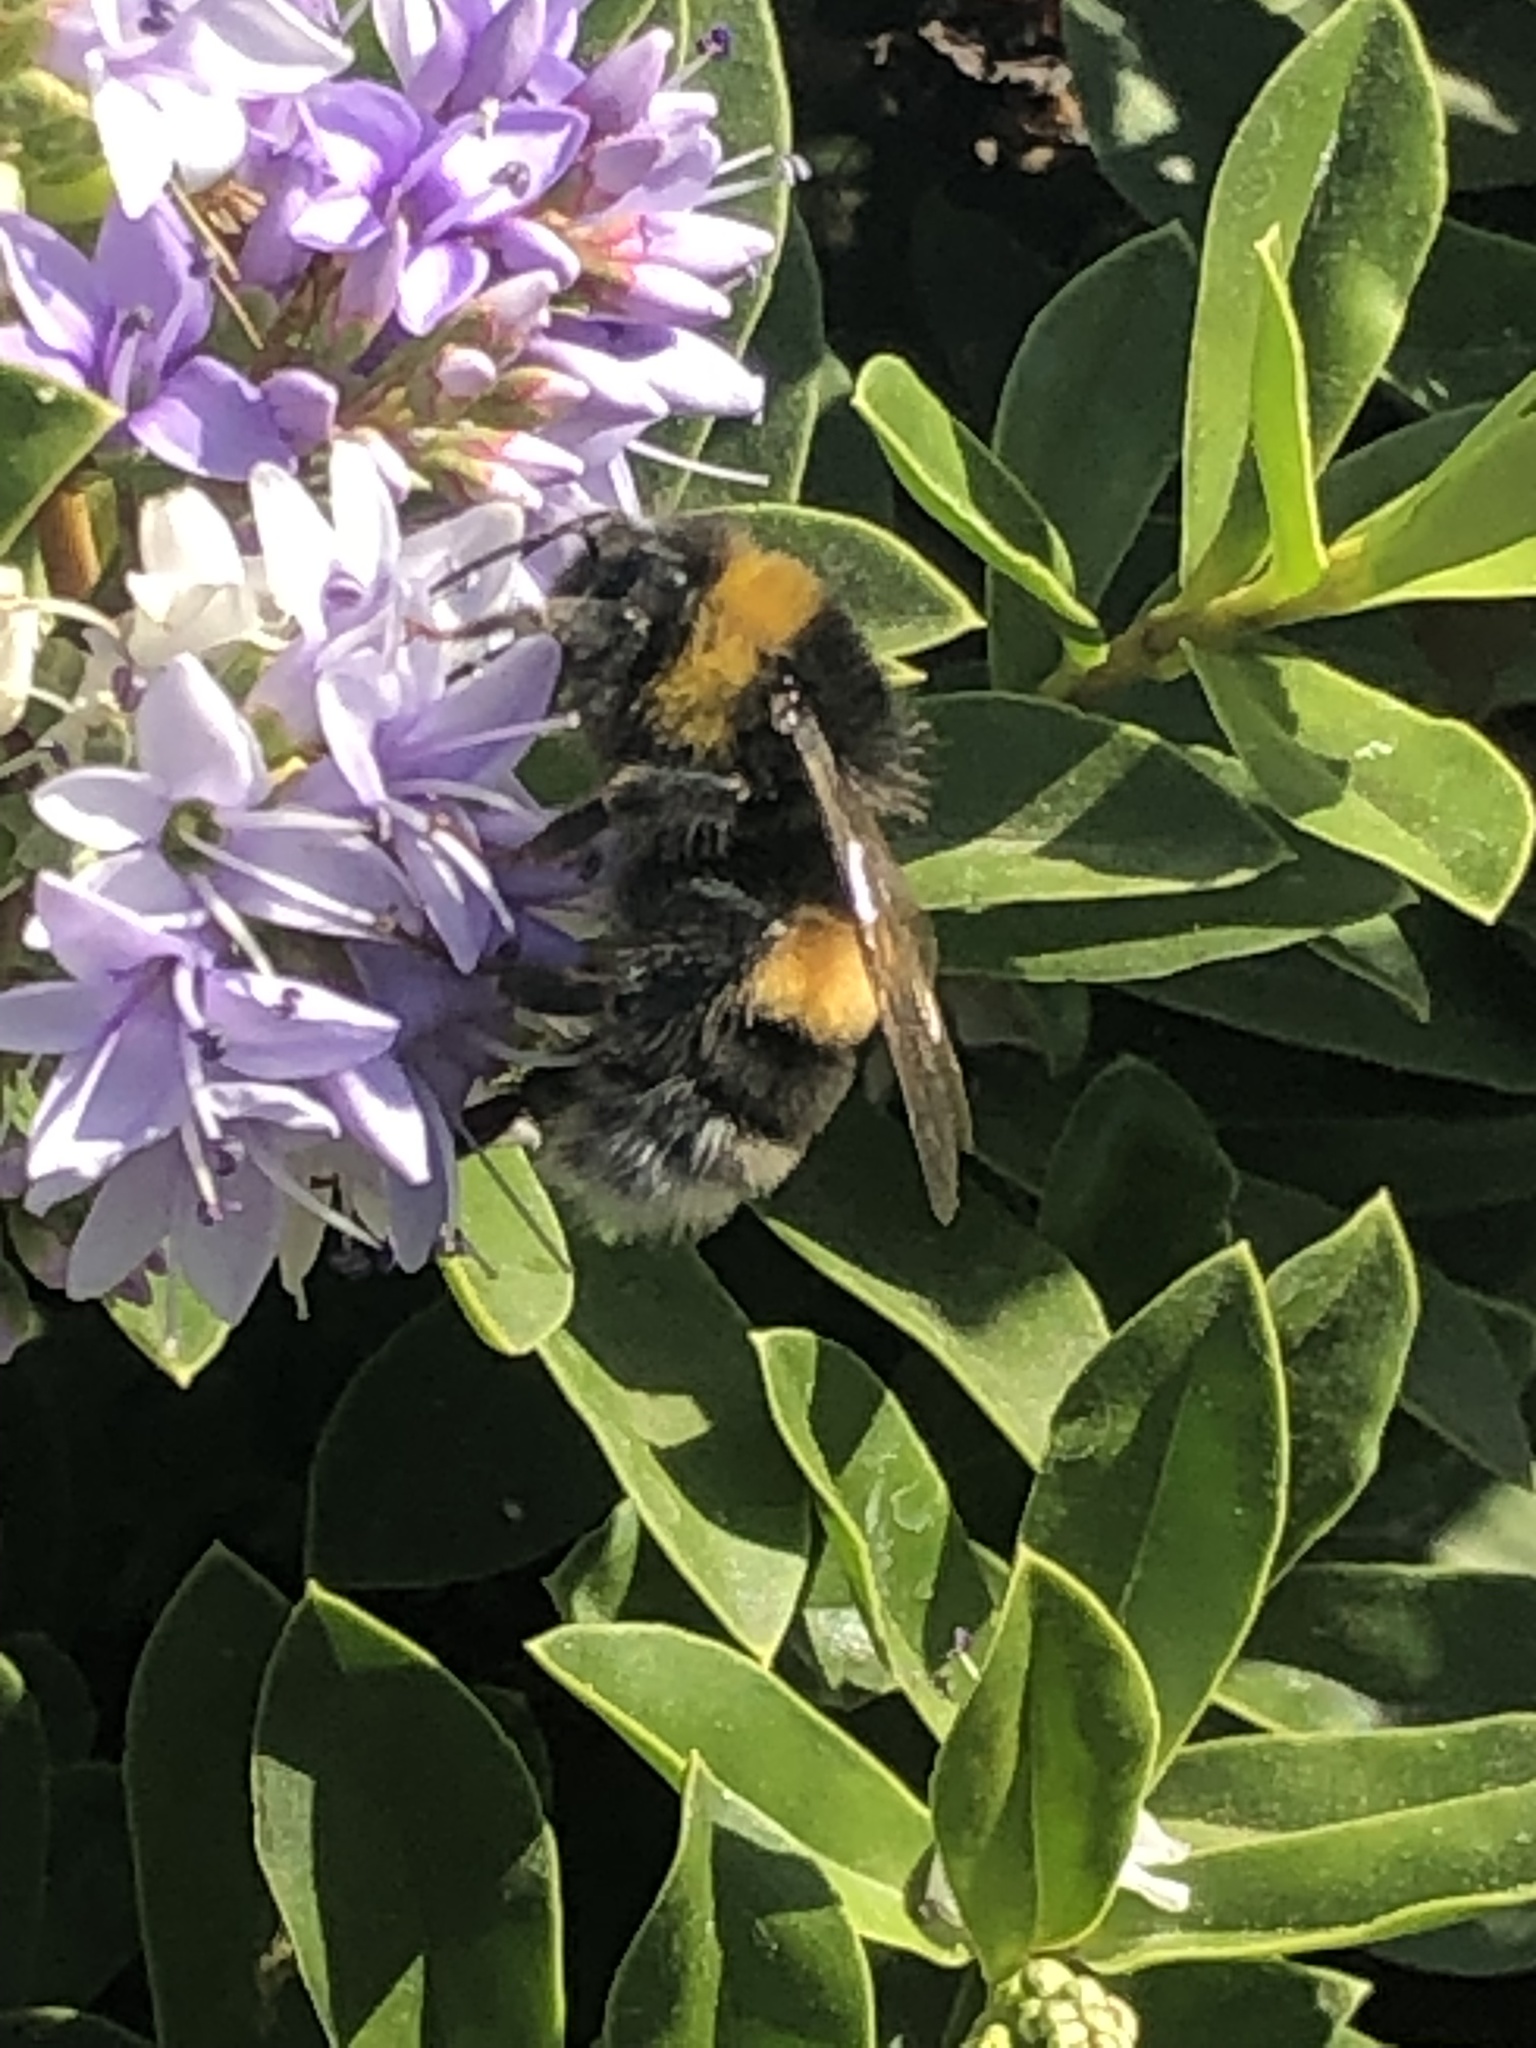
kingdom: Animalia
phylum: Arthropoda
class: Insecta
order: Hymenoptera
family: Apidae
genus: Bombus
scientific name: Bombus terrestris
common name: Buff-tailed bumblebee
